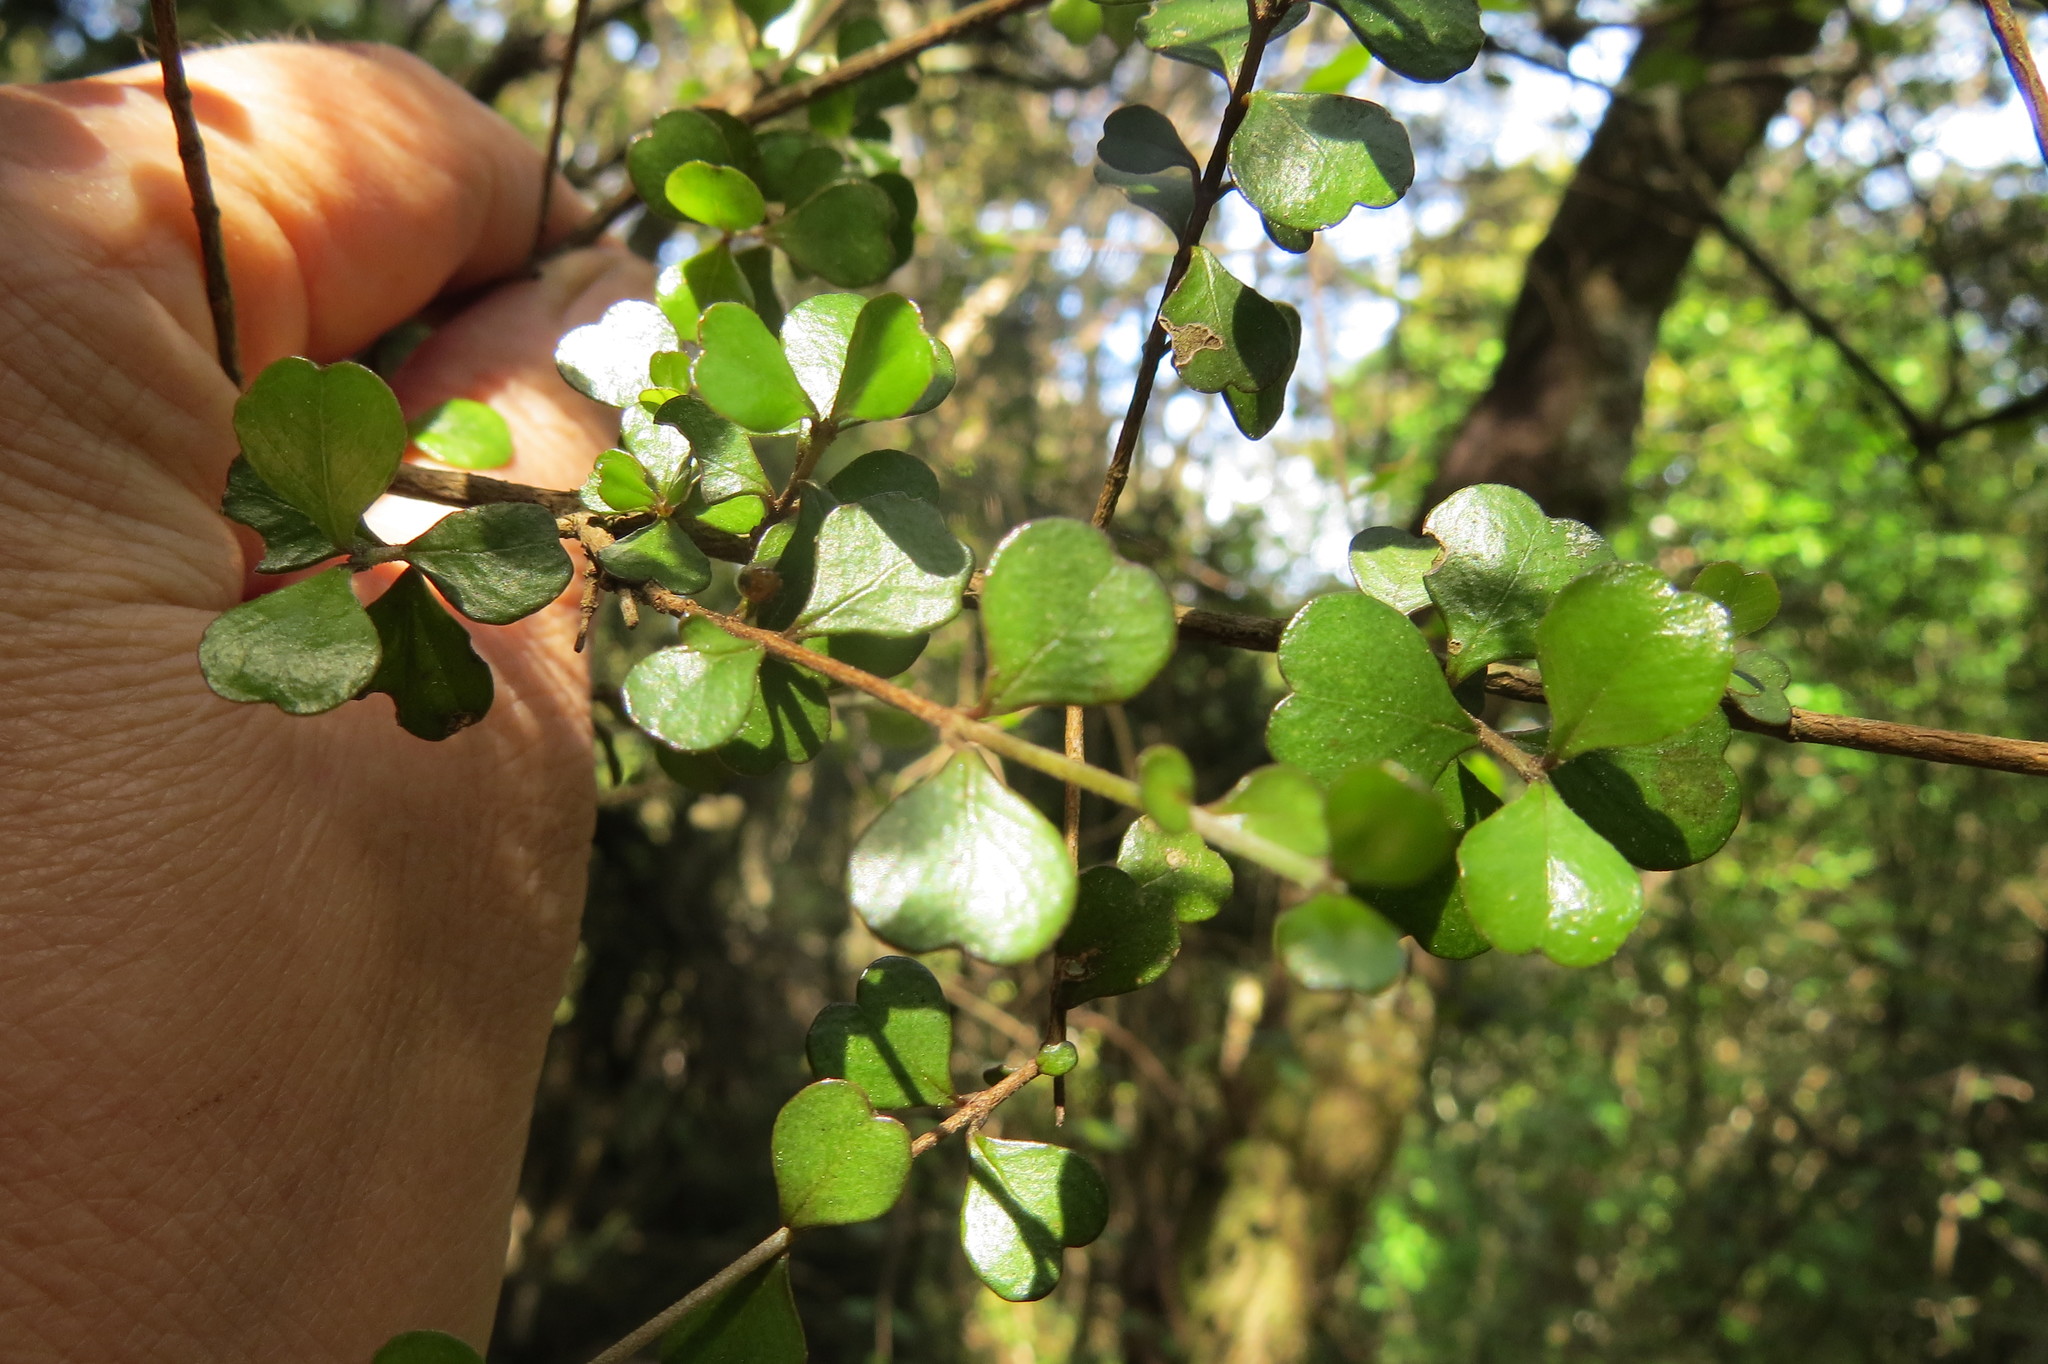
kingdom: Plantae
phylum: Tracheophyta
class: Magnoliopsida
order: Myrtales
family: Myrtaceae
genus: Lophomyrtus
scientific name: Lophomyrtus obcordata
